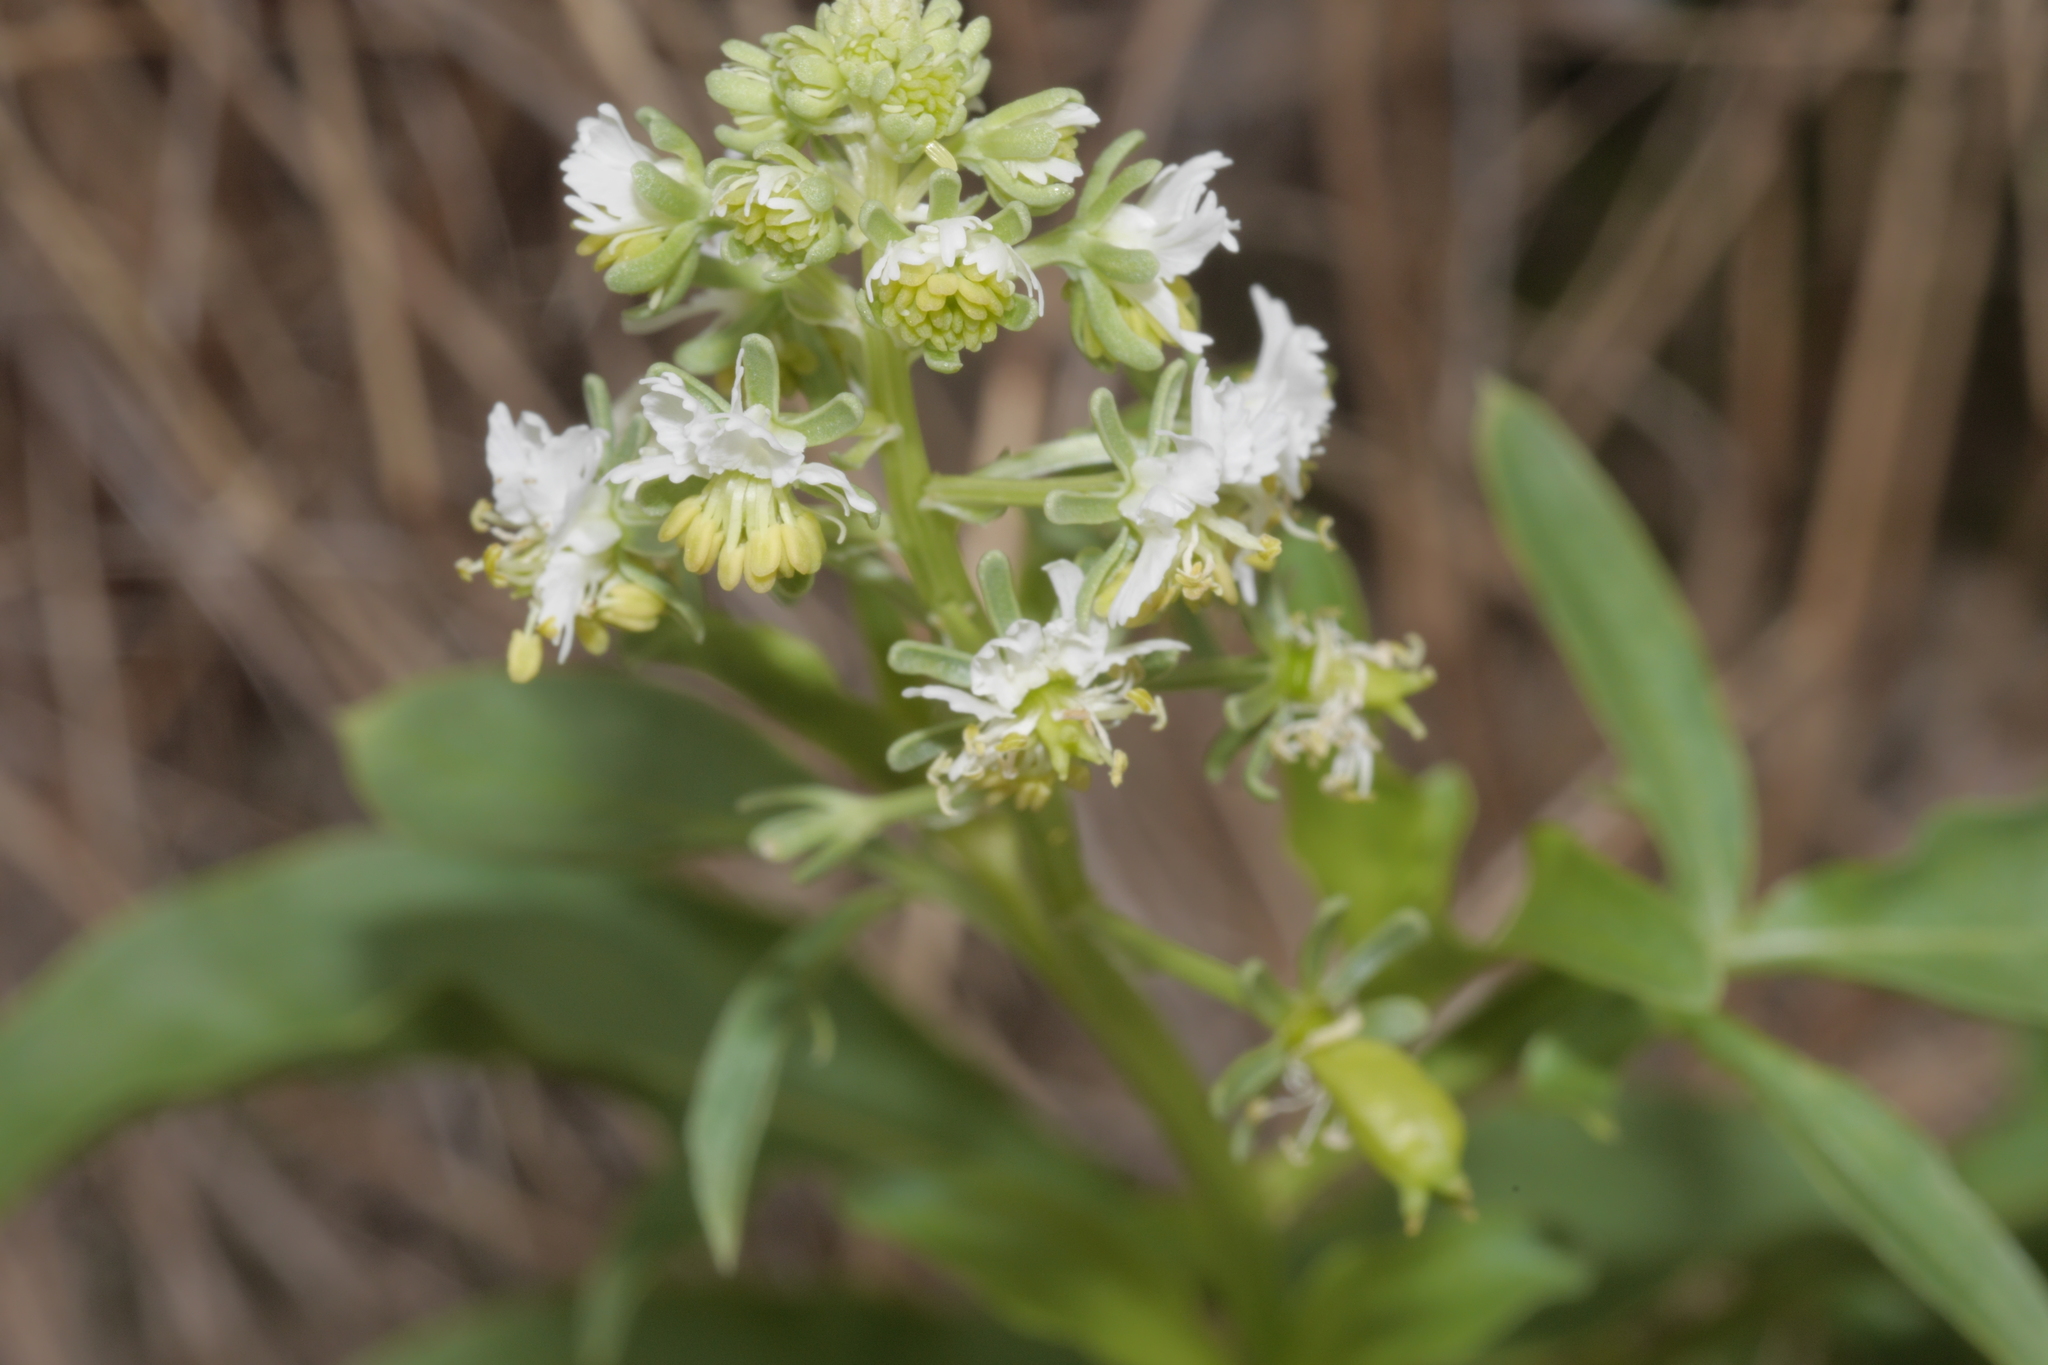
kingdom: Plantae
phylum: Tracheophyta
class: Magnoliopsida
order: Brassicales
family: Resedaceae
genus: Reseda
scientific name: Reseda jacquinii
